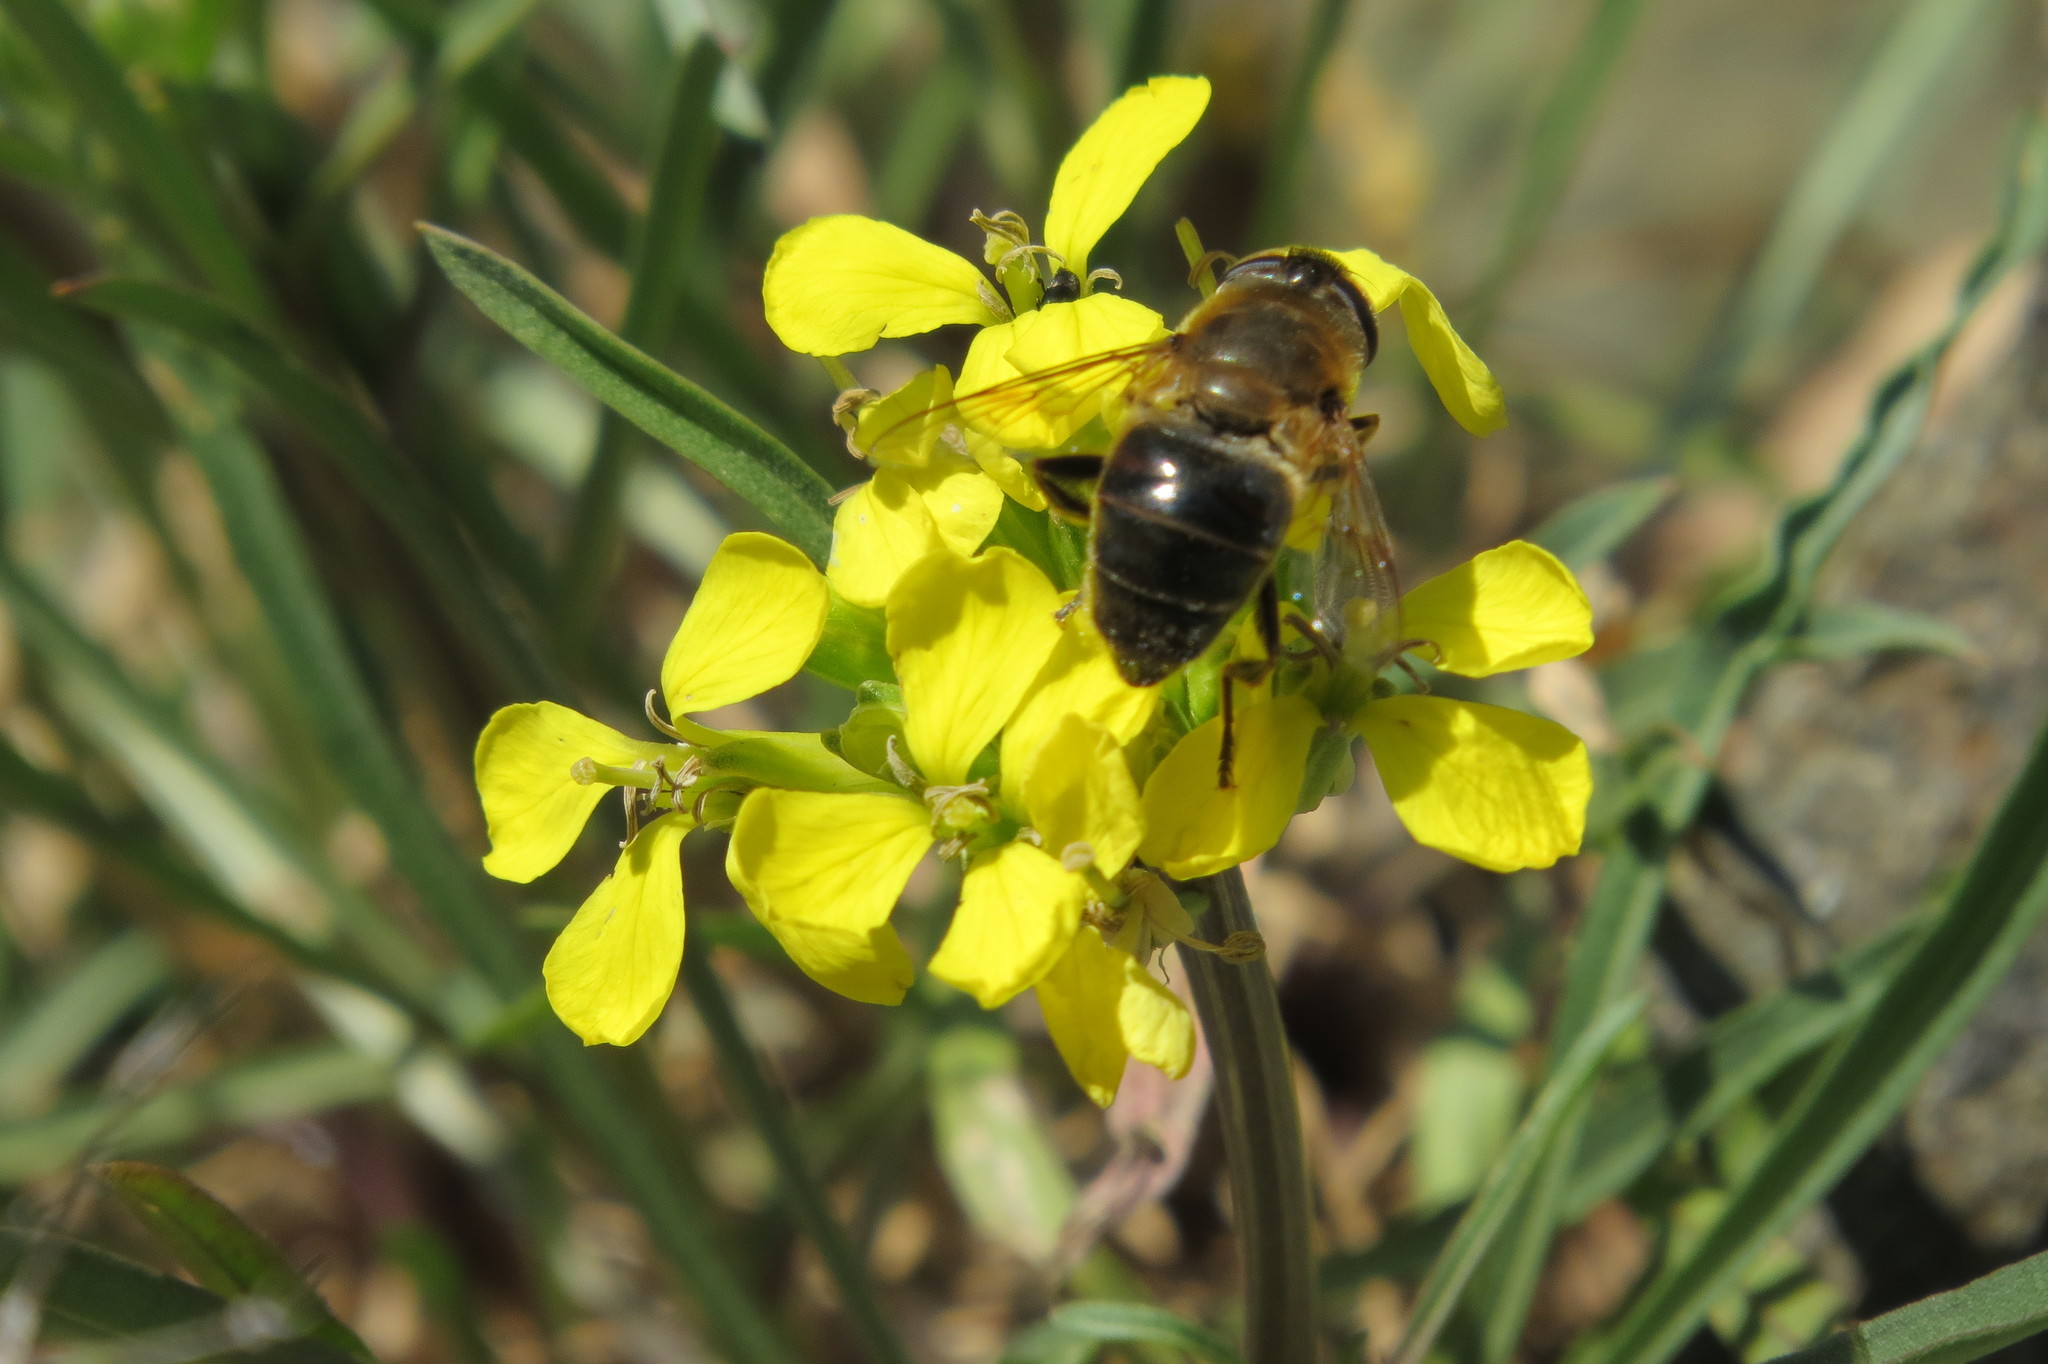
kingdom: Animalia
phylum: Arthropoda
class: Insecta
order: Diptera
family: Syrphidae
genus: Eristalis
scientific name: Eristalis tenax
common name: Drone fly
